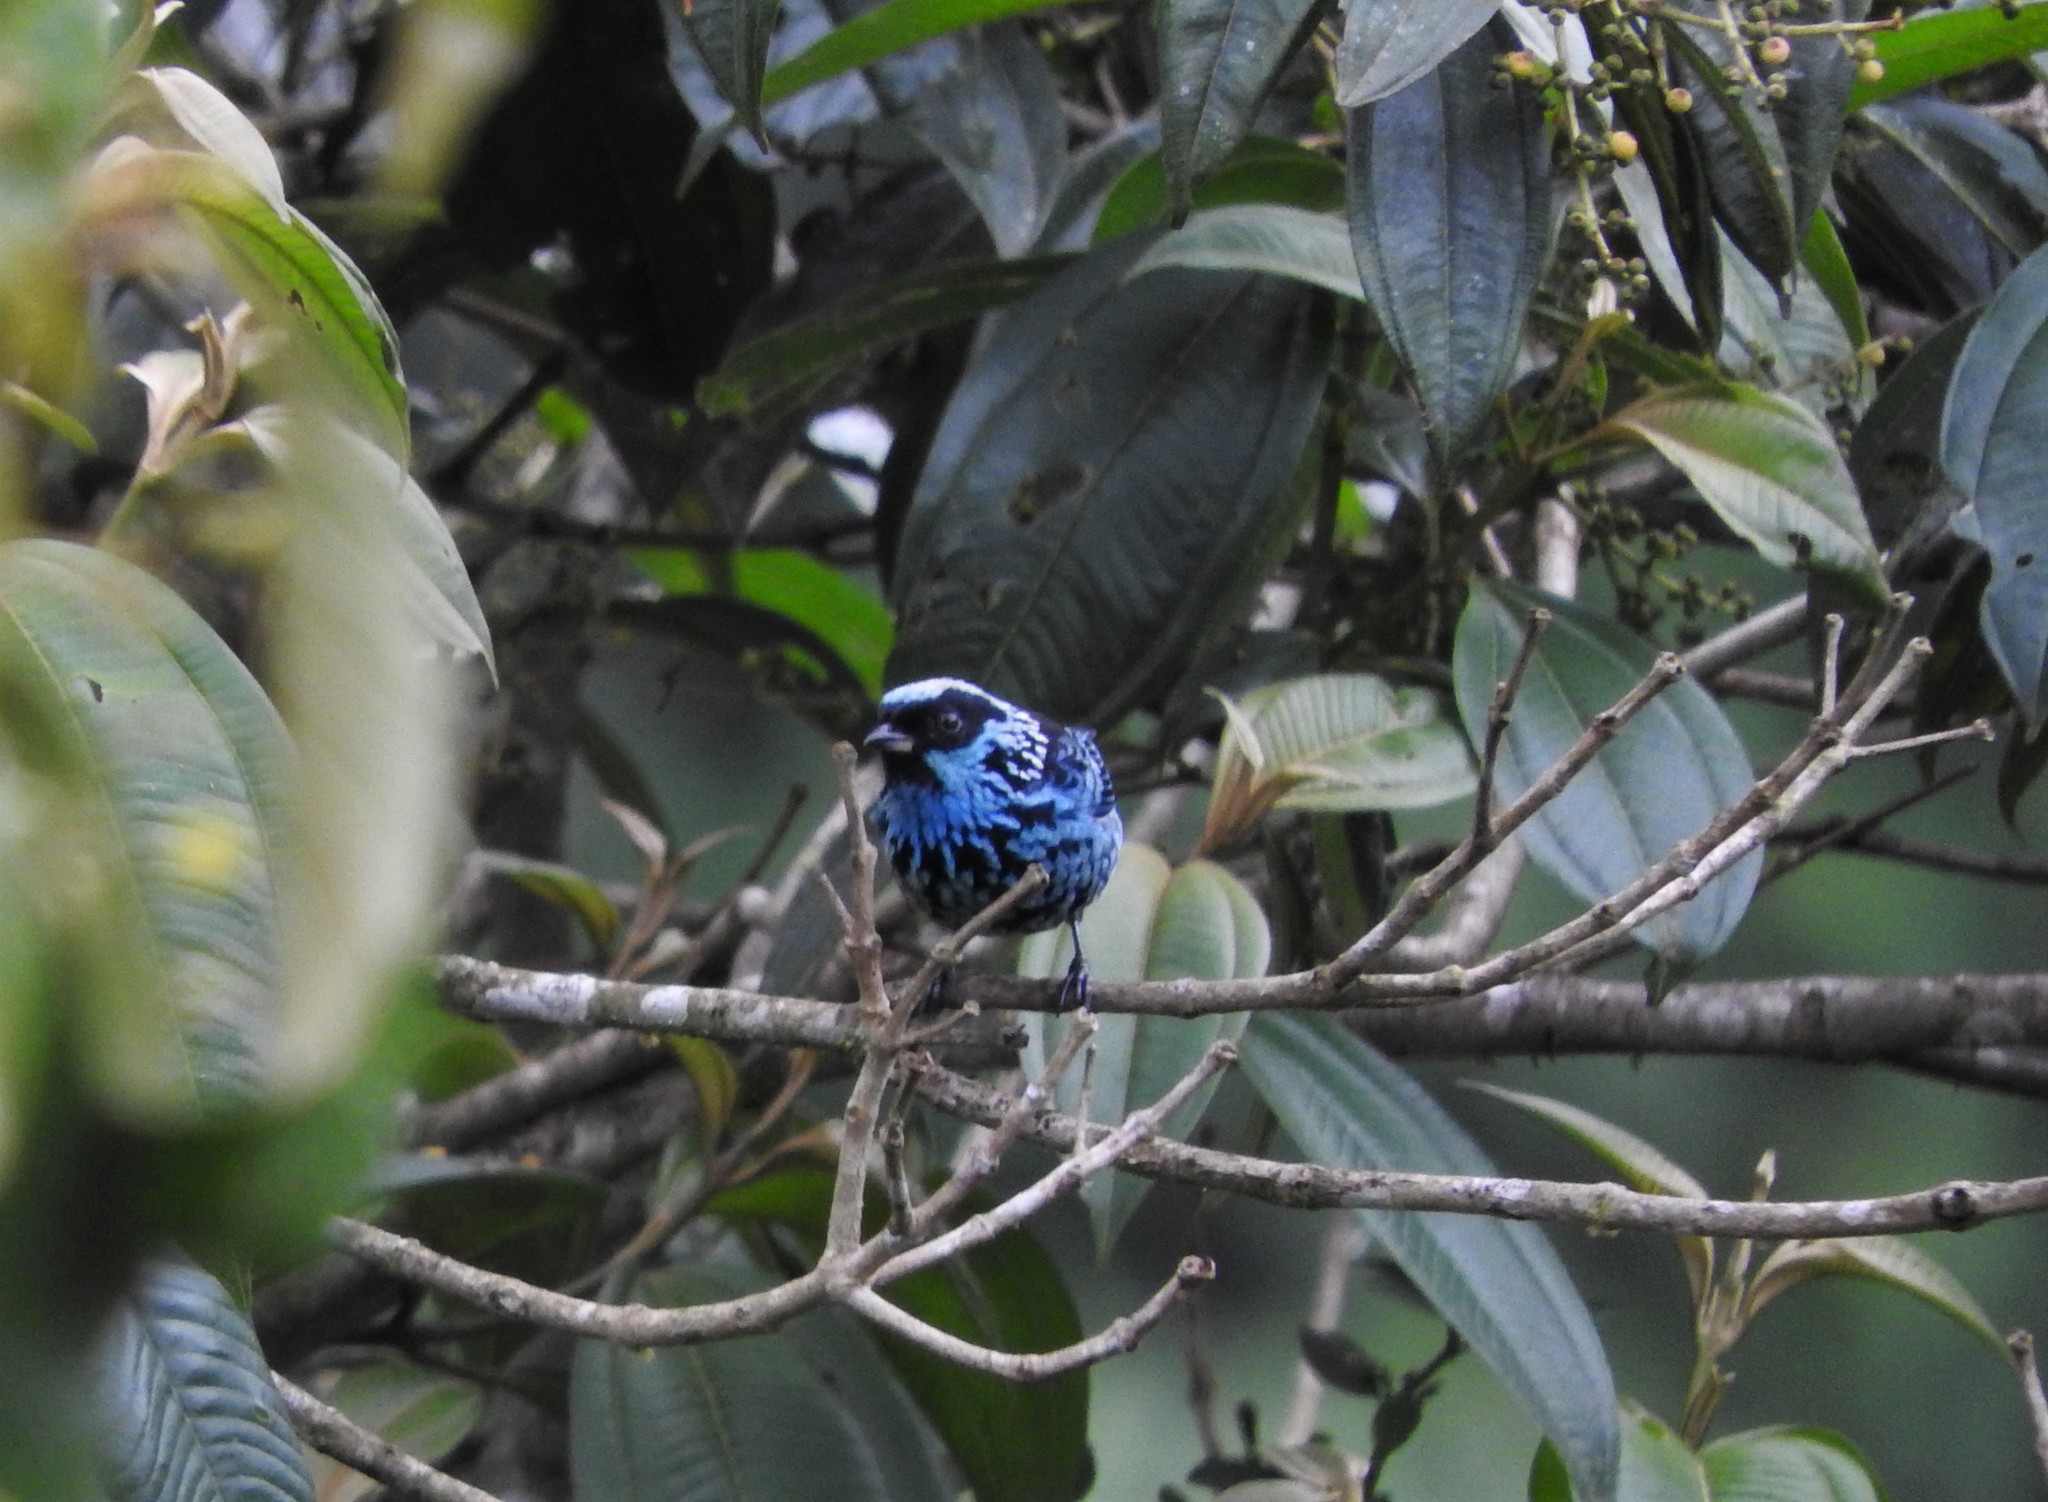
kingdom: Animalia
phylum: Chordata
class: Aves
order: Passeriformes
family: Thraupidae
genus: Tangara
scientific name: Tangara nigroviridis
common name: Beryl-spangled tanager
